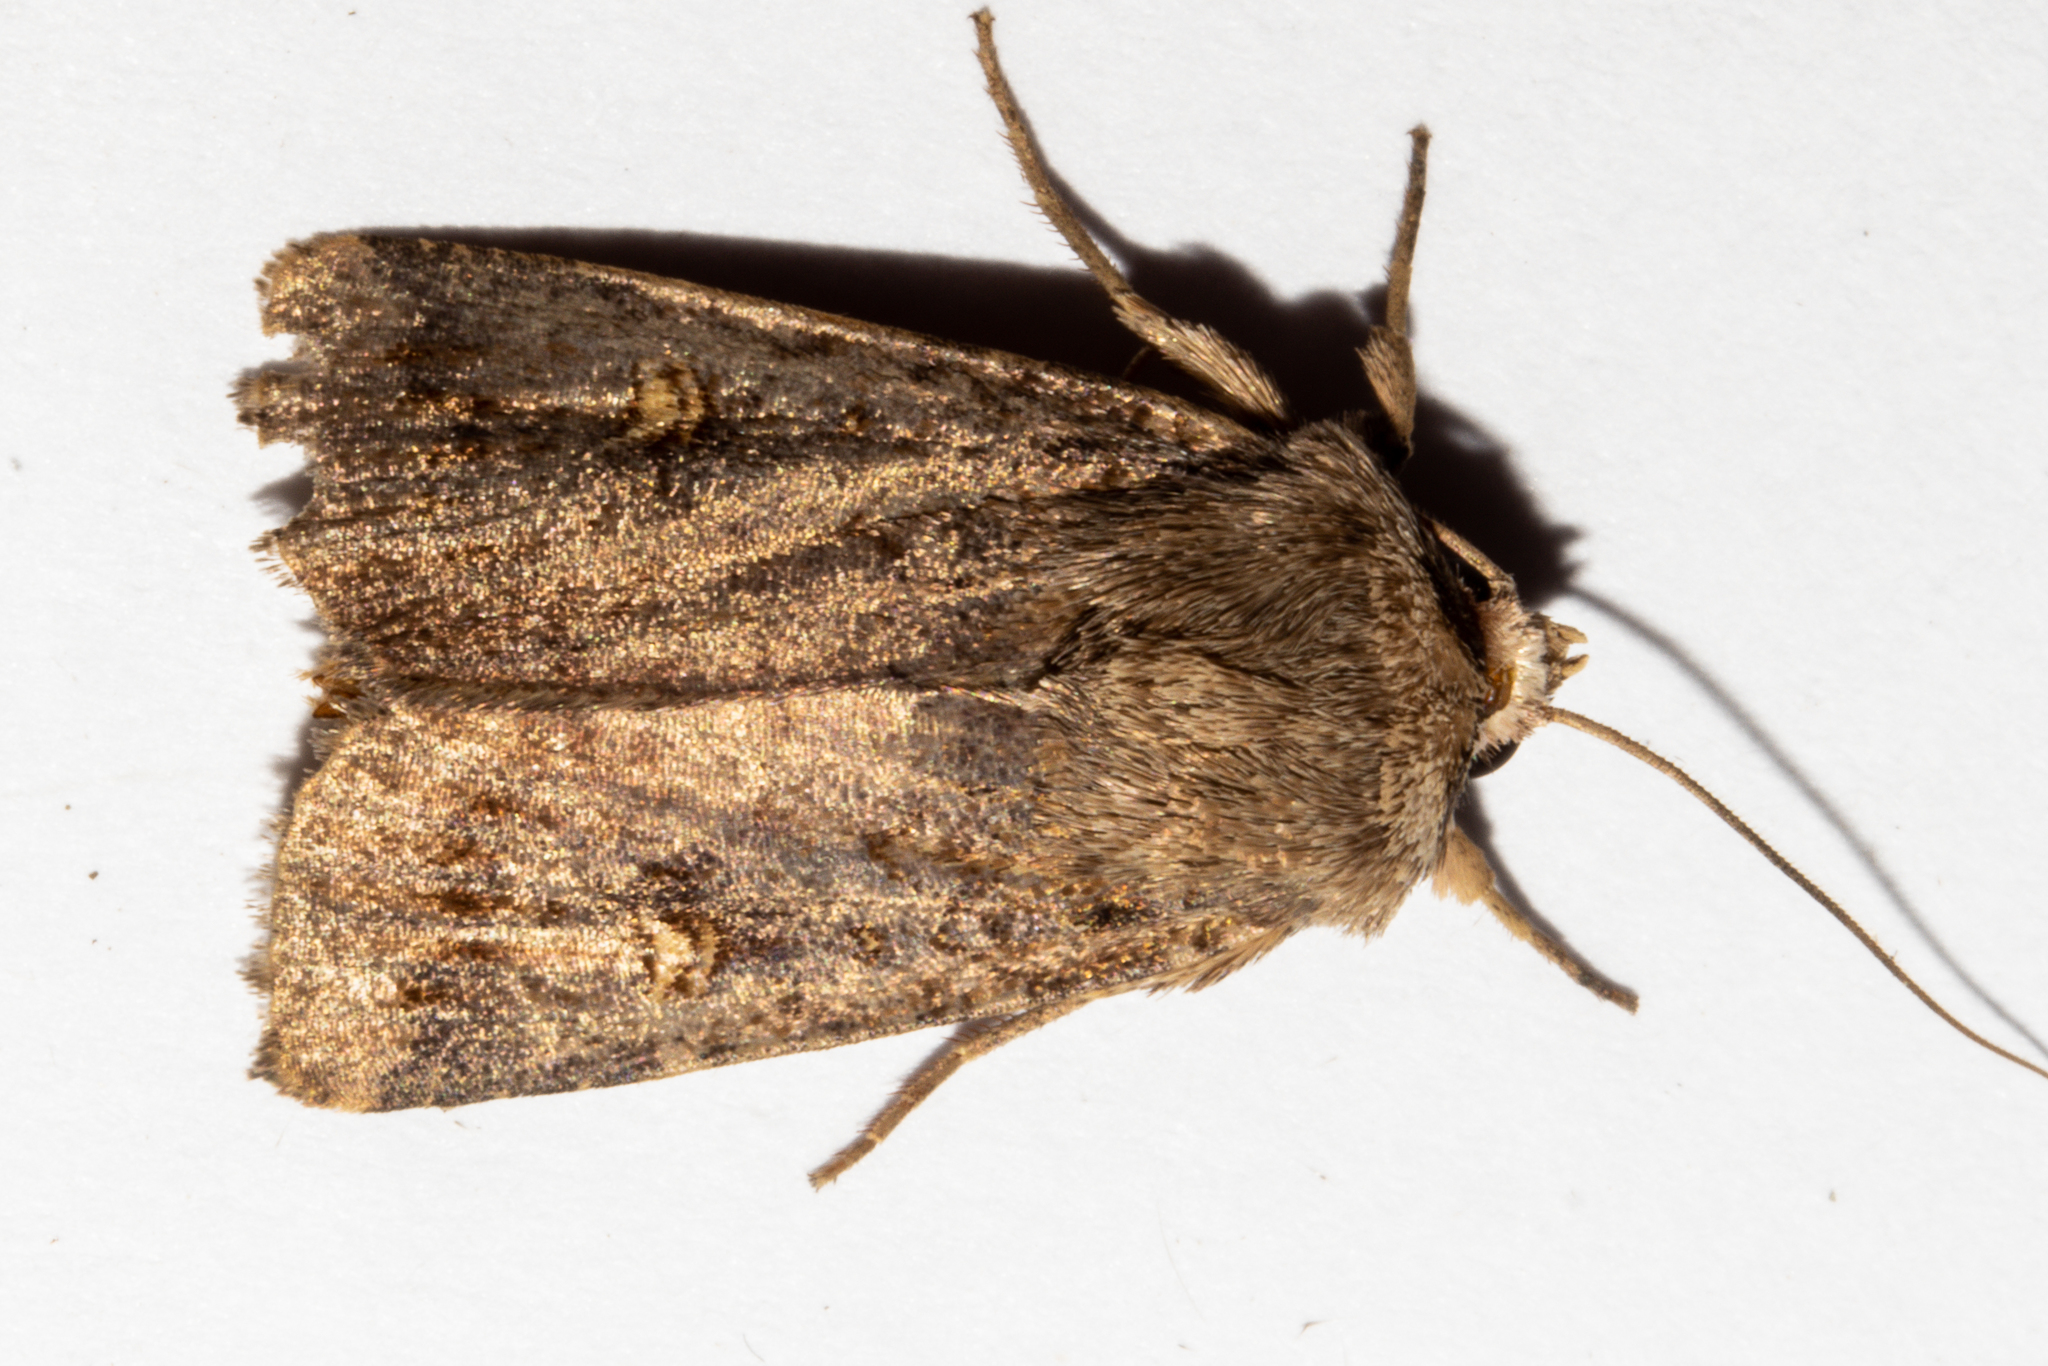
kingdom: Animalia
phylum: Arthropoda
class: Insecta
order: Lepidoptera
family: Noctuidae
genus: Proteuxoa
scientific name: Proteuxoa tetronycha
